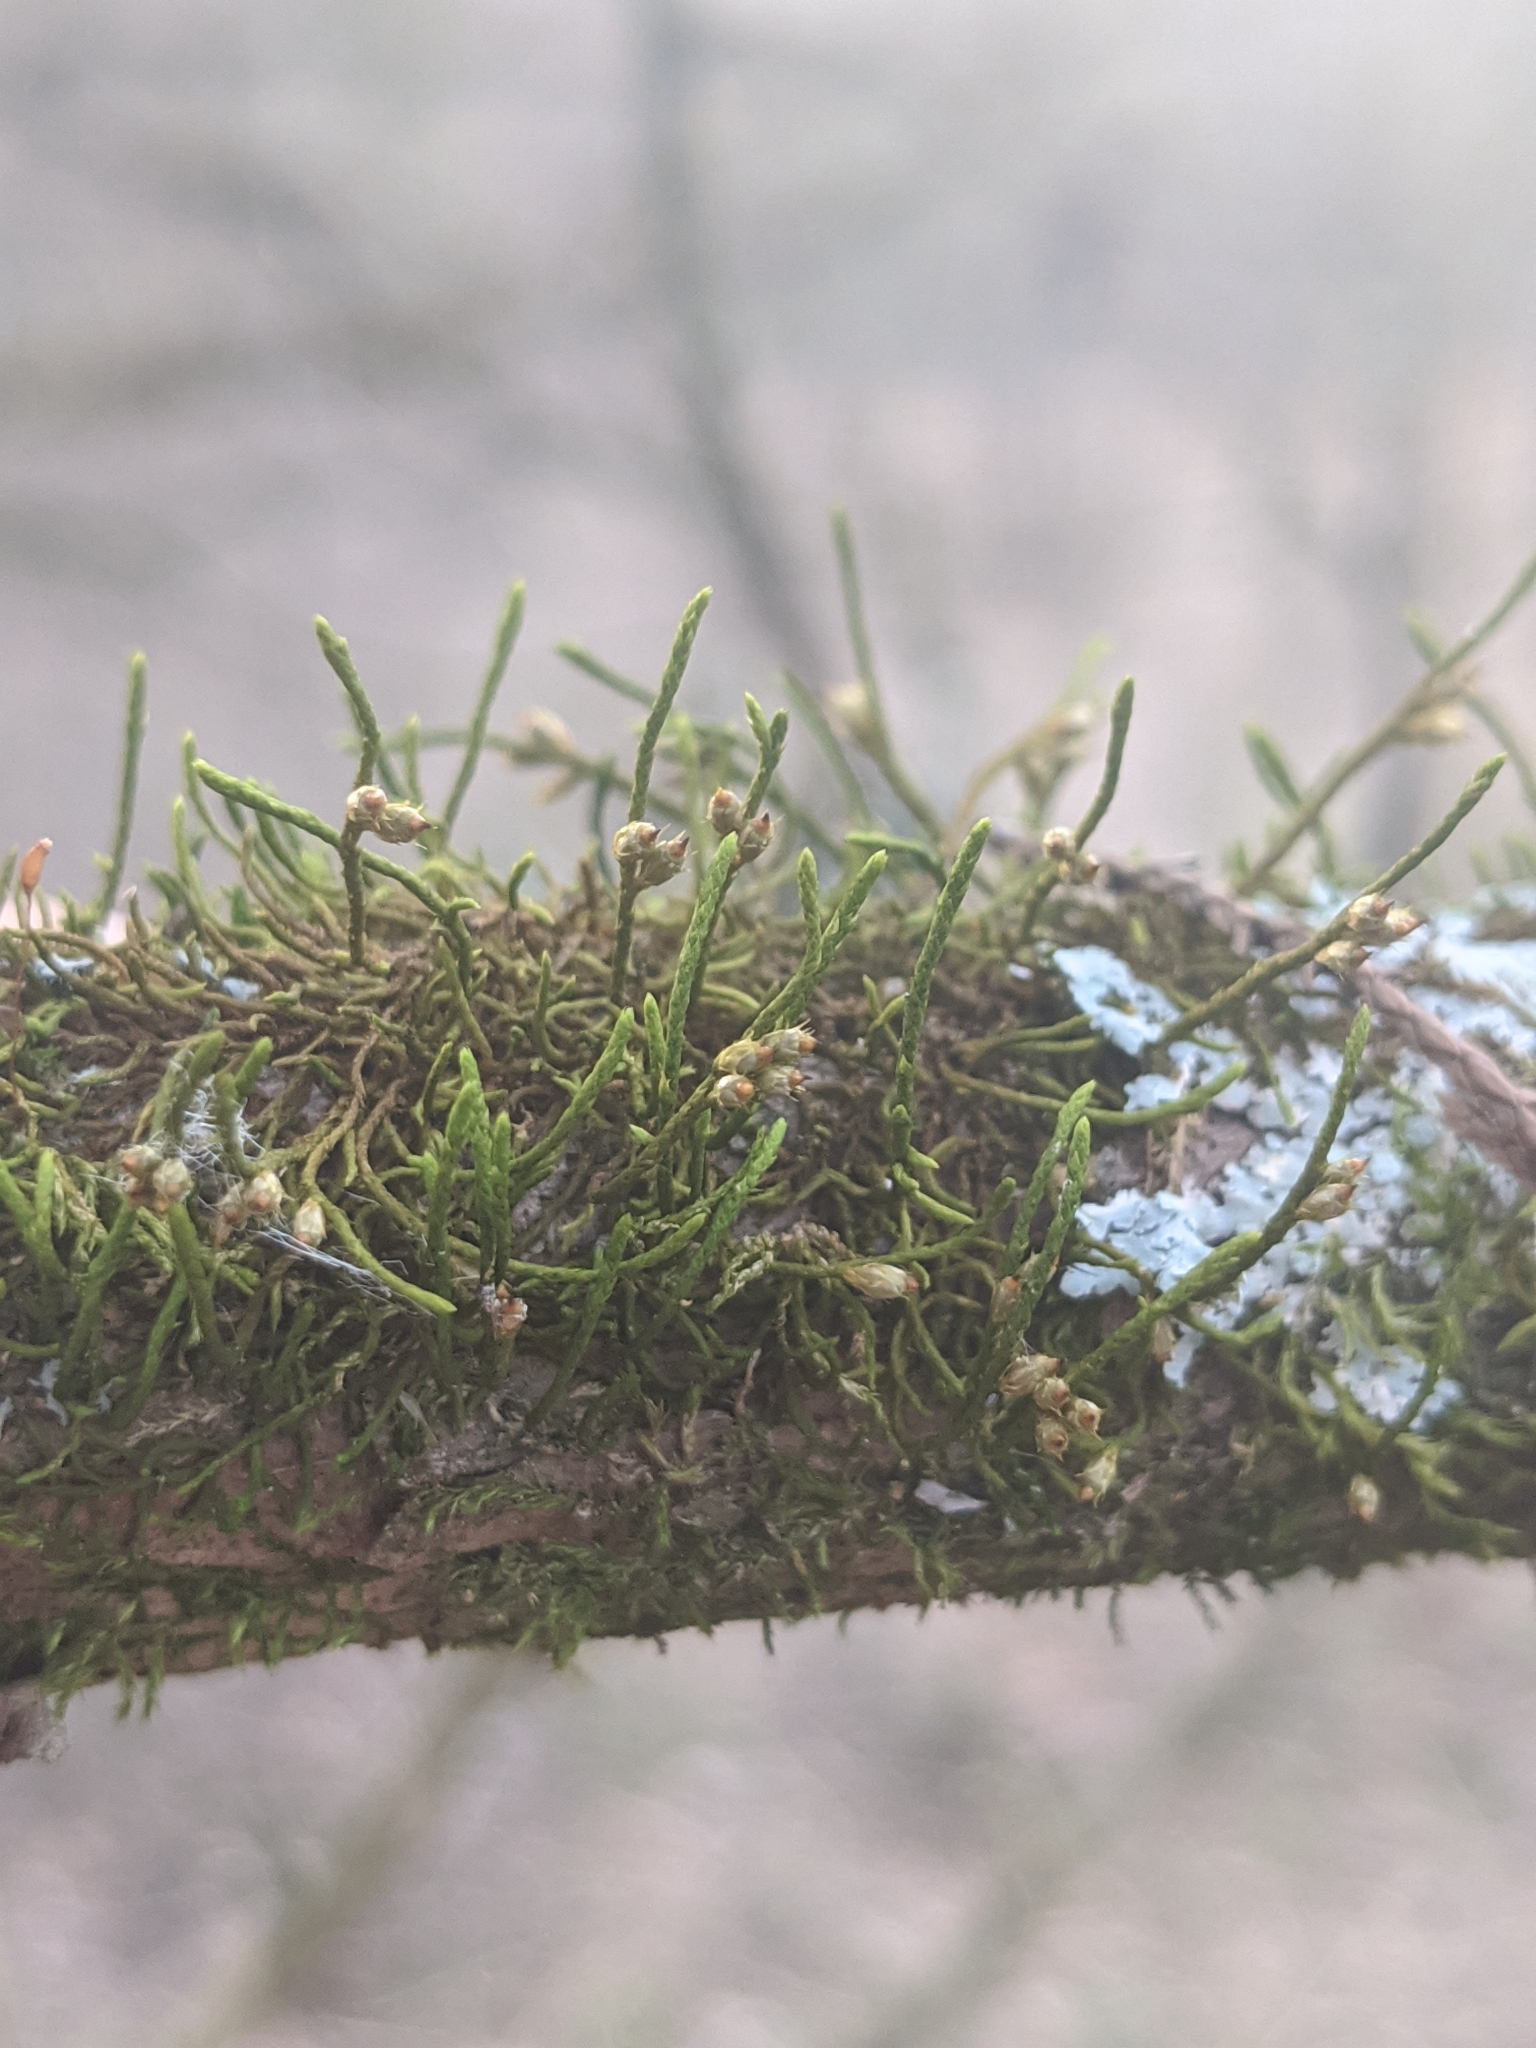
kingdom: Plantae
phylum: Bryophyta
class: Bryopsida
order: Hypnales
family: Cryphaeaceae
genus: Cryphaea
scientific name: Cryphaea glomerata
